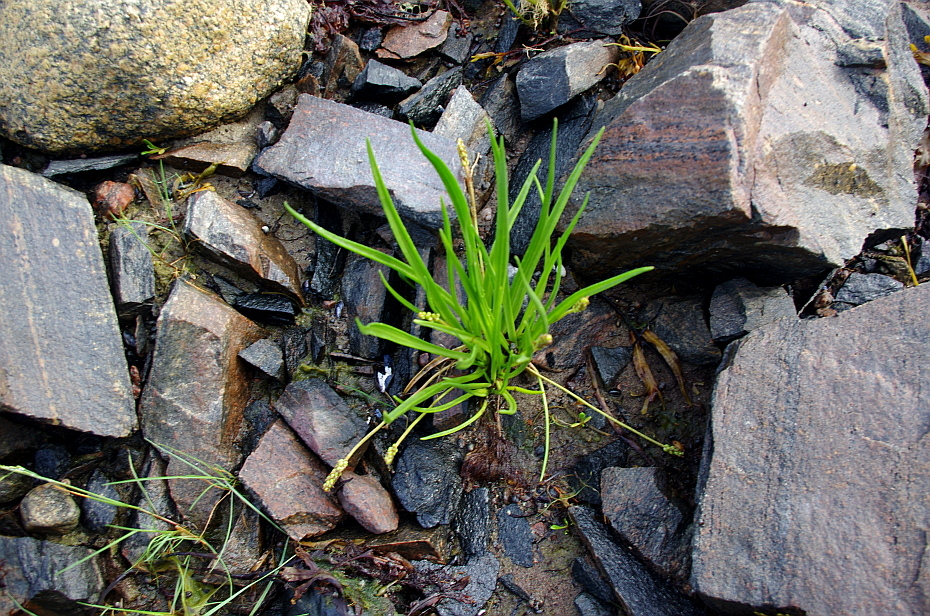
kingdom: Plantae
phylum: Tracheophyta
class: Magnoliopsida
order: Lamiales
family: Plantaginaceae
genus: Plantago
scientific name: Plantago maritima
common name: Sea plantain
